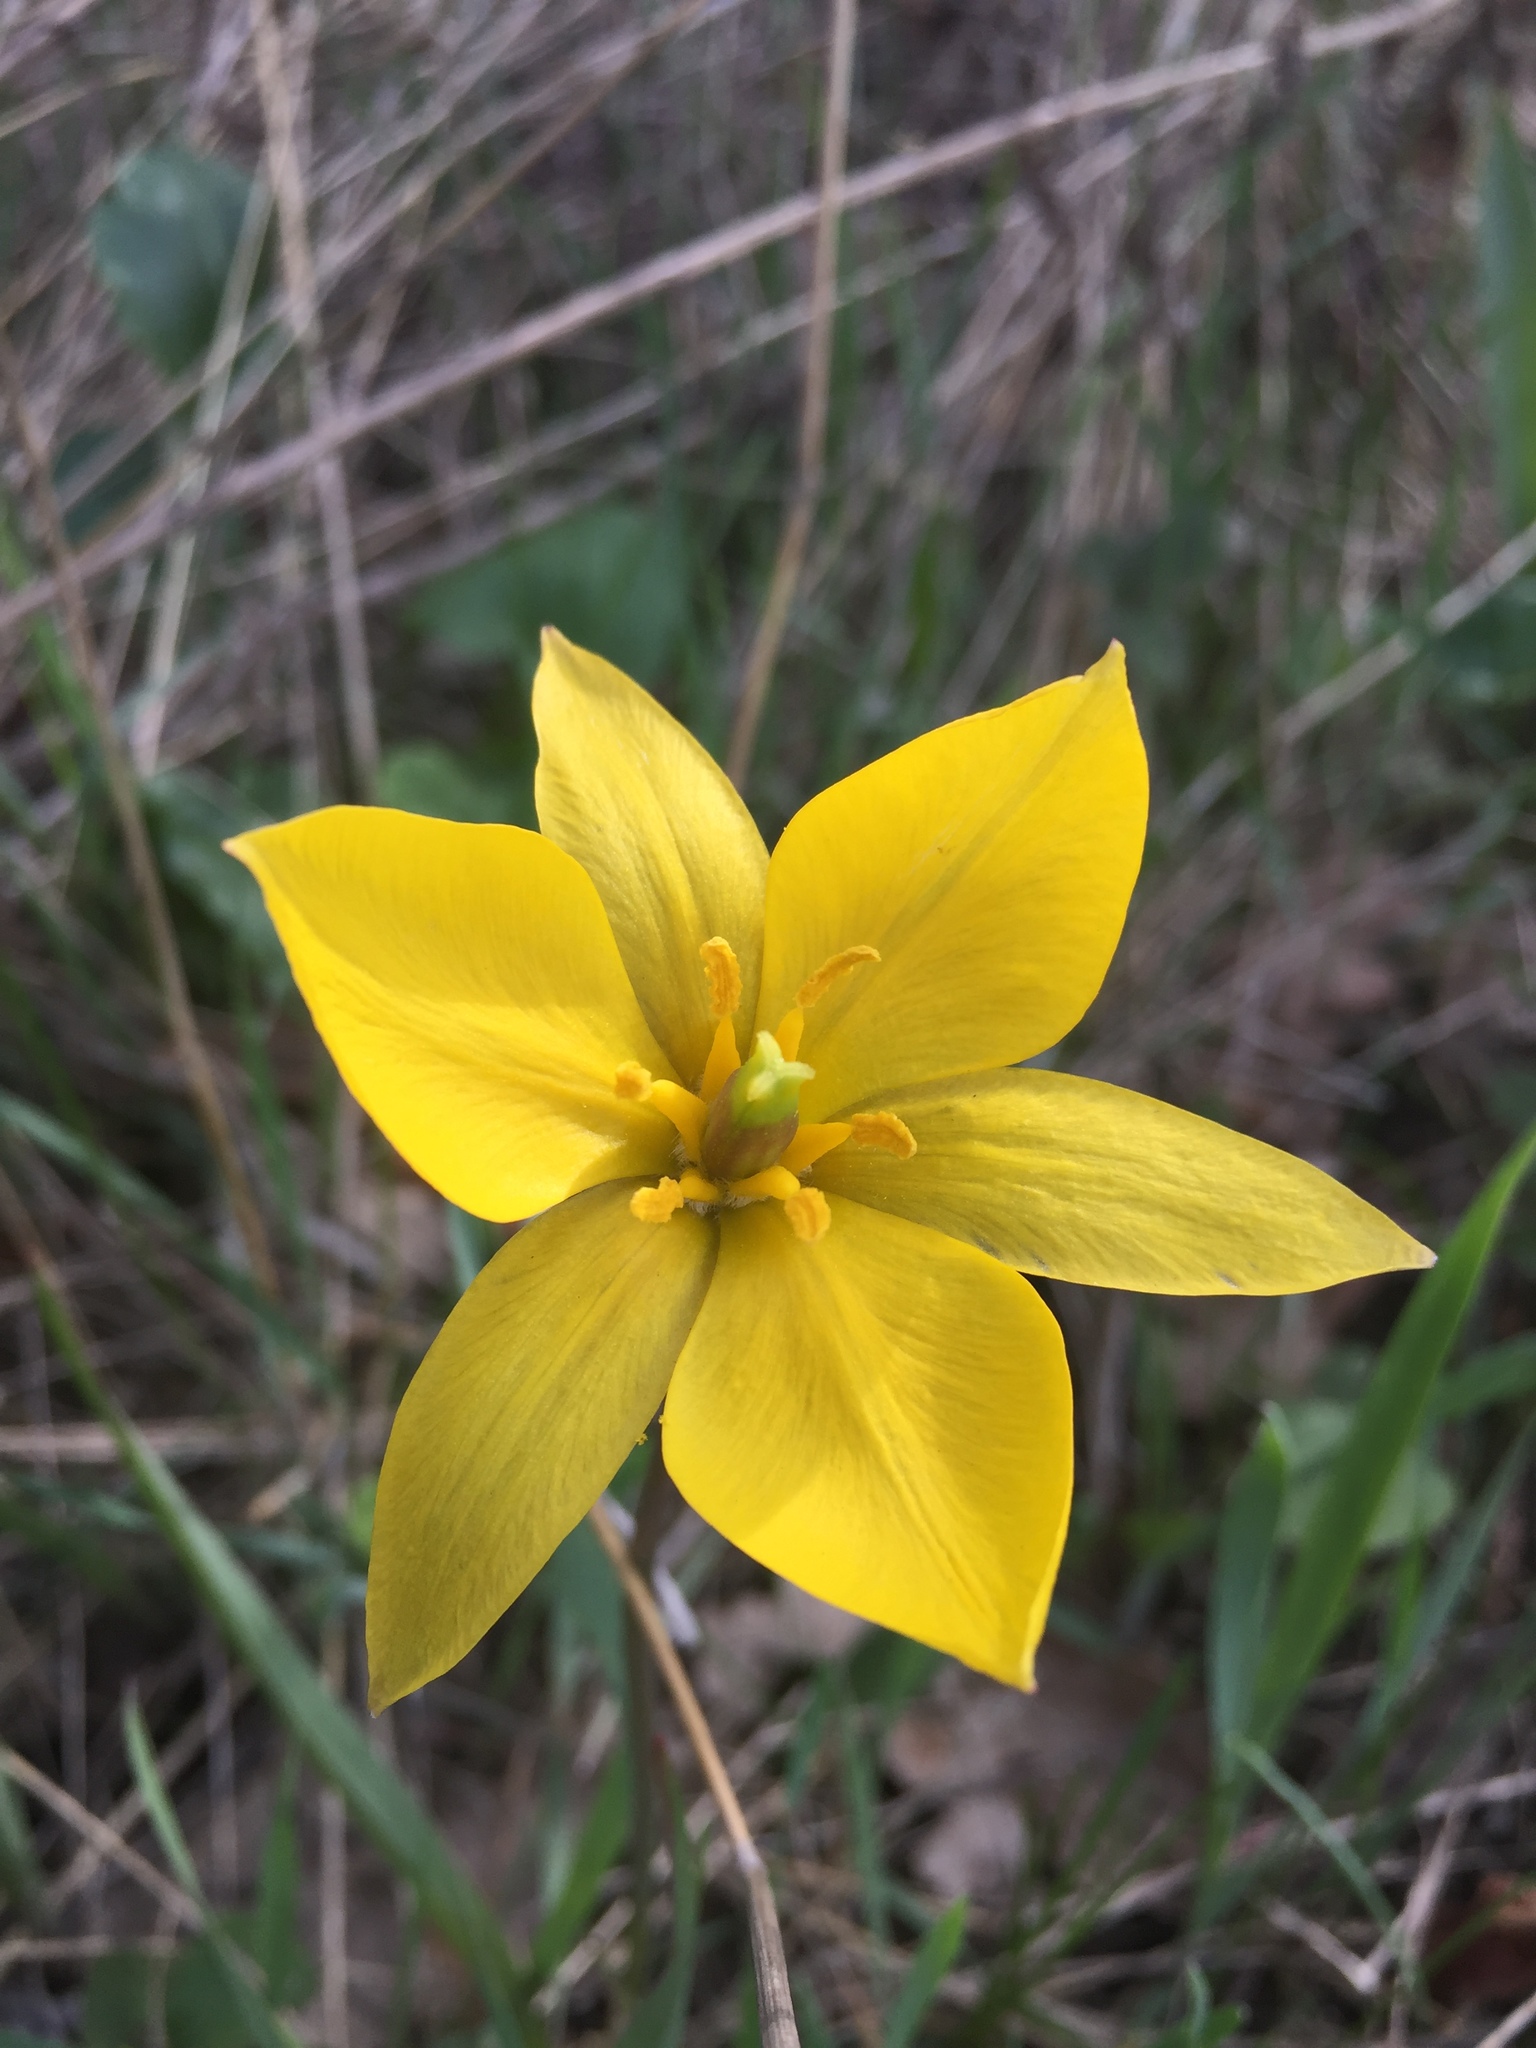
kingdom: Plantae
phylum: Tracheophyta
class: Liliopsida
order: Liliales
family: Liliaceae
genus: Tulipa
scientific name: Tulipa sylvestris
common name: Wild tulip
